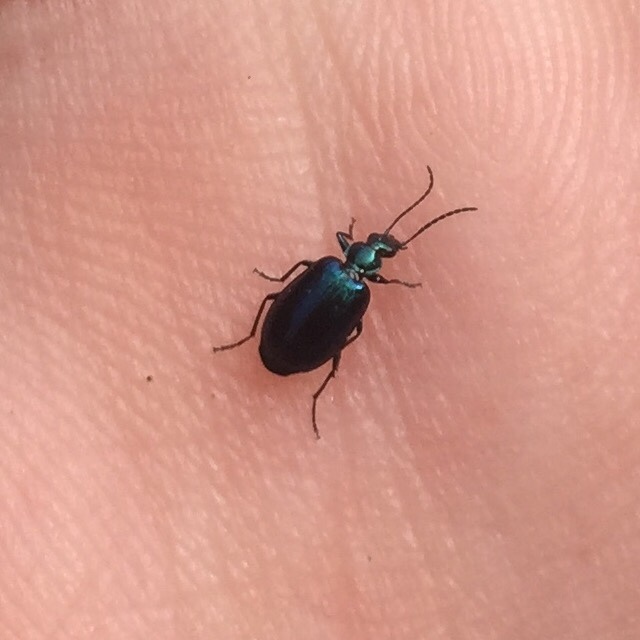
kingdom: Animalia
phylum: Arthropoda
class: Insecta
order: Coleoptera
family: Carabidae
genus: Lebia
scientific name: Lebia viridis
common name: Flower lebia beetle
